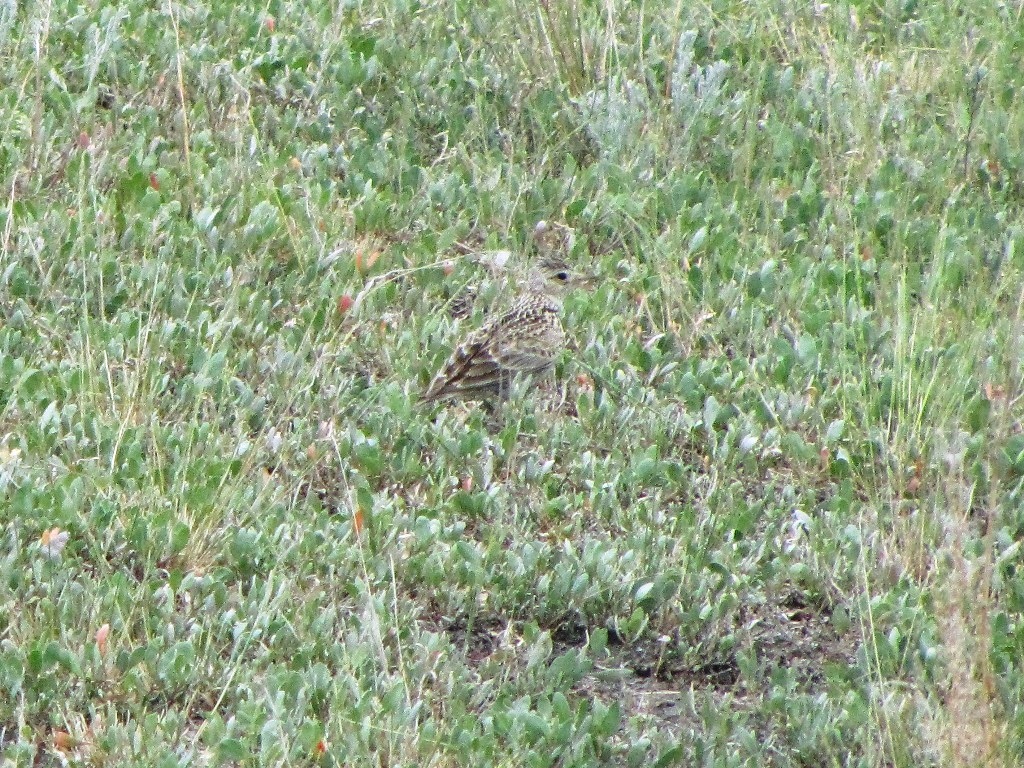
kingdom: Animalia
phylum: Chordata
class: Aves
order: Passeriformes
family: Alaudidae
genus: Alauda
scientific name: Alauda arvensis
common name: Eurasian skylark
